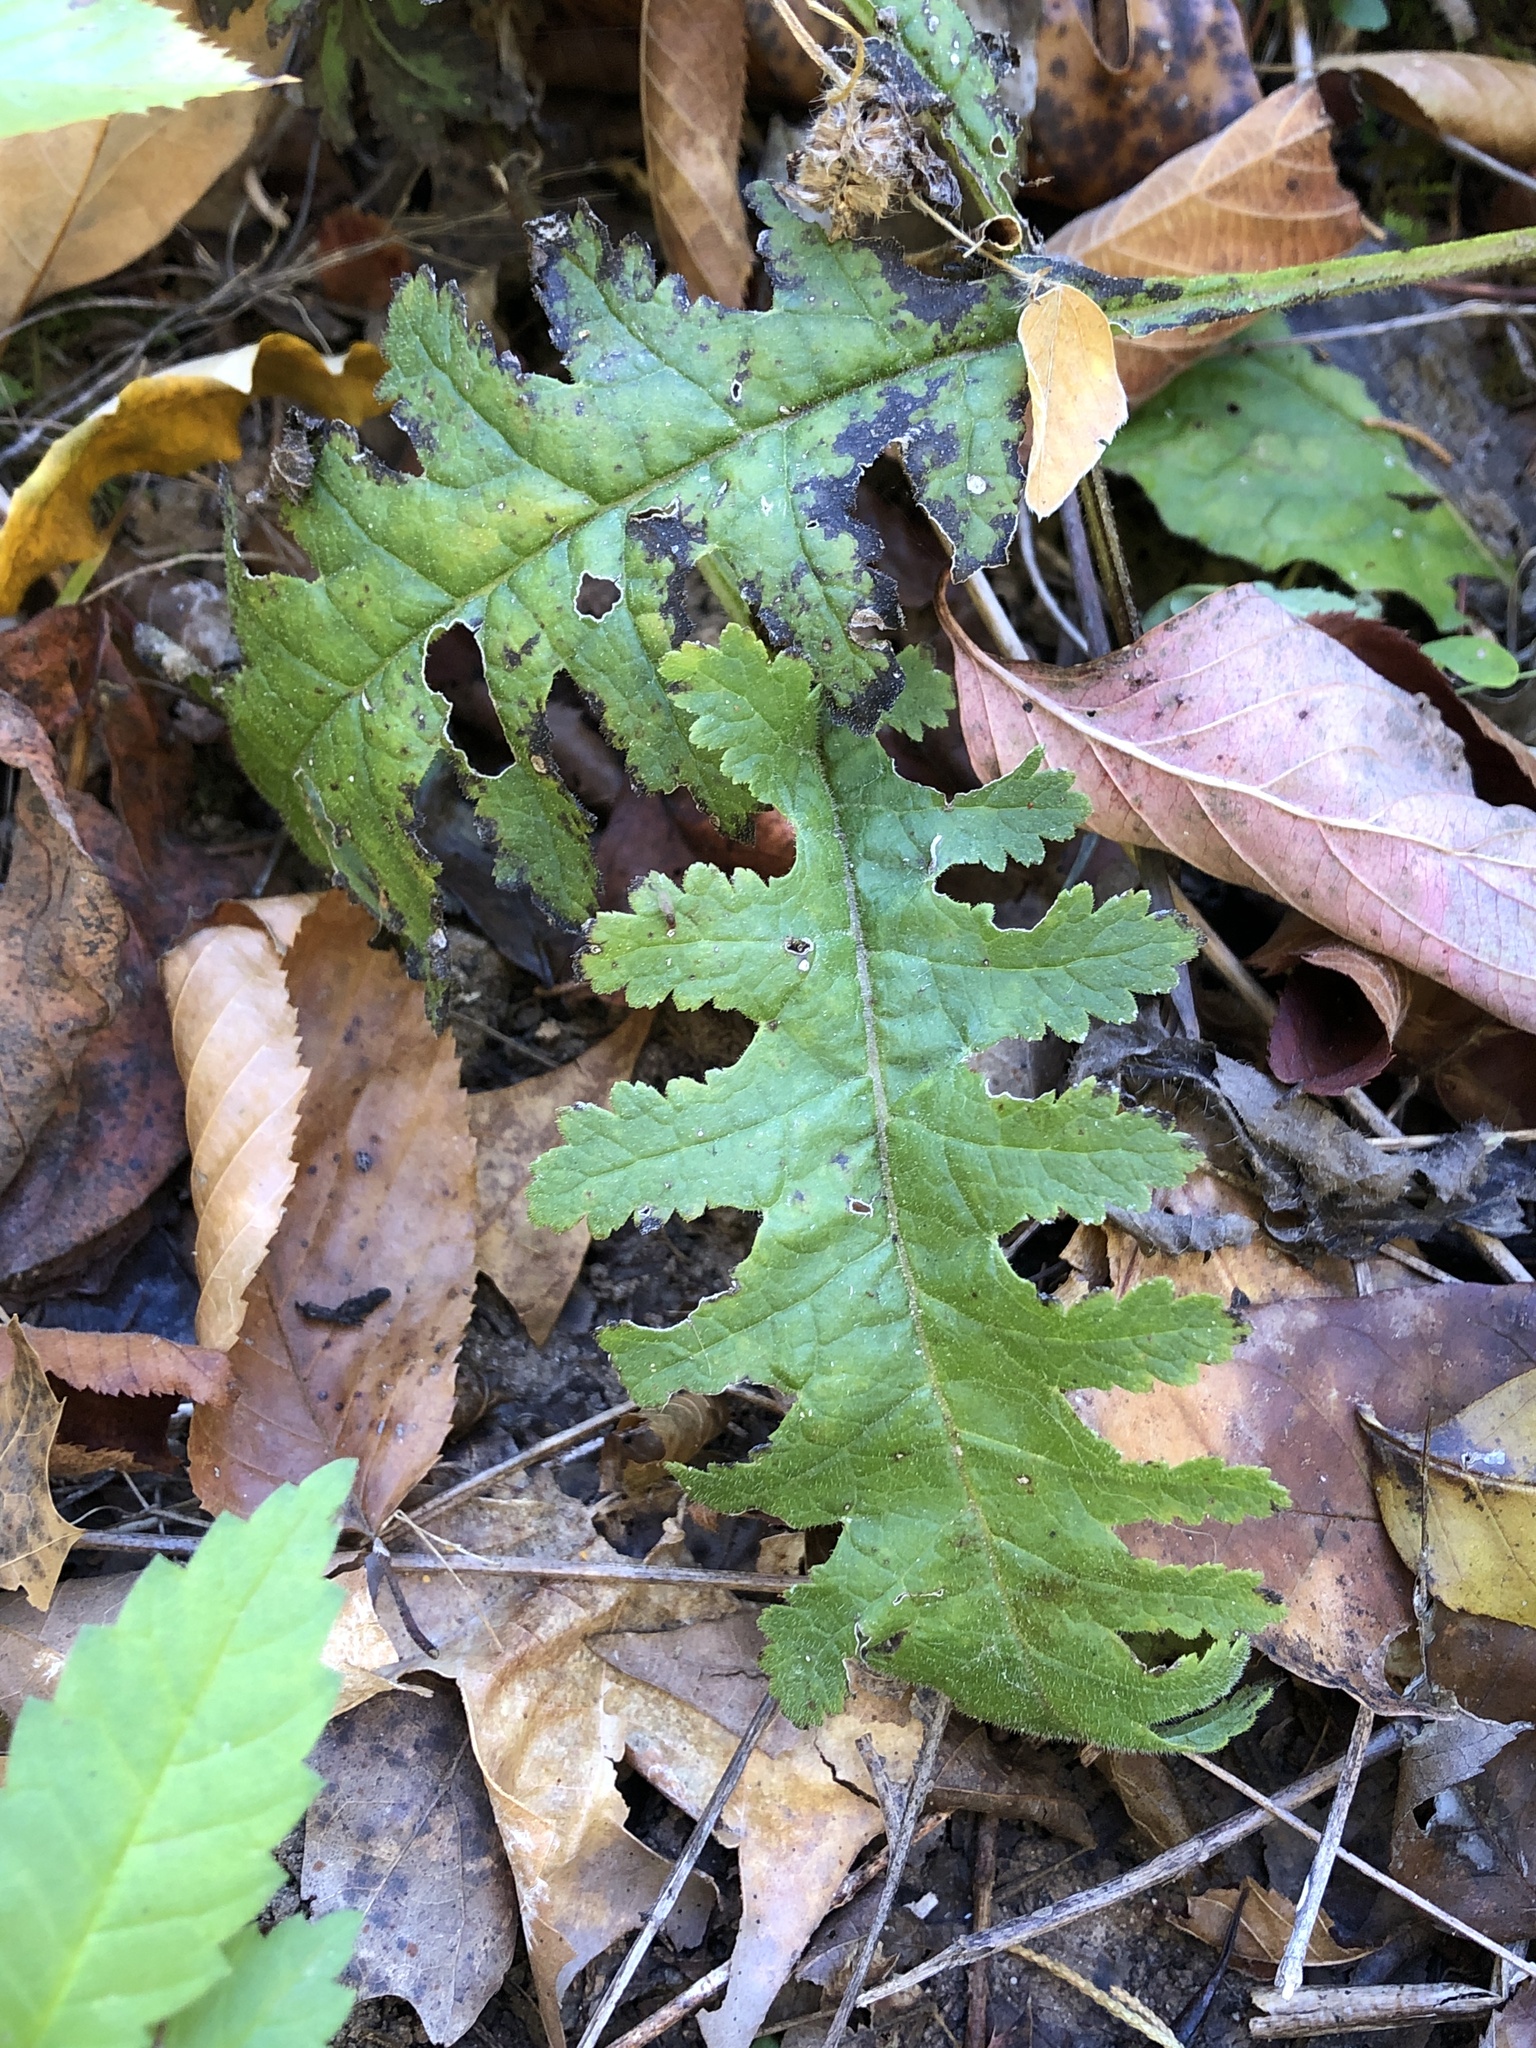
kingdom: Plantae
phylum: Tracheophyta
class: Magnoliopsida
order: Lamiales
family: Orobanchaceae
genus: Pedicularis
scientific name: Pedicularis canadensis
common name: Early lousewort
